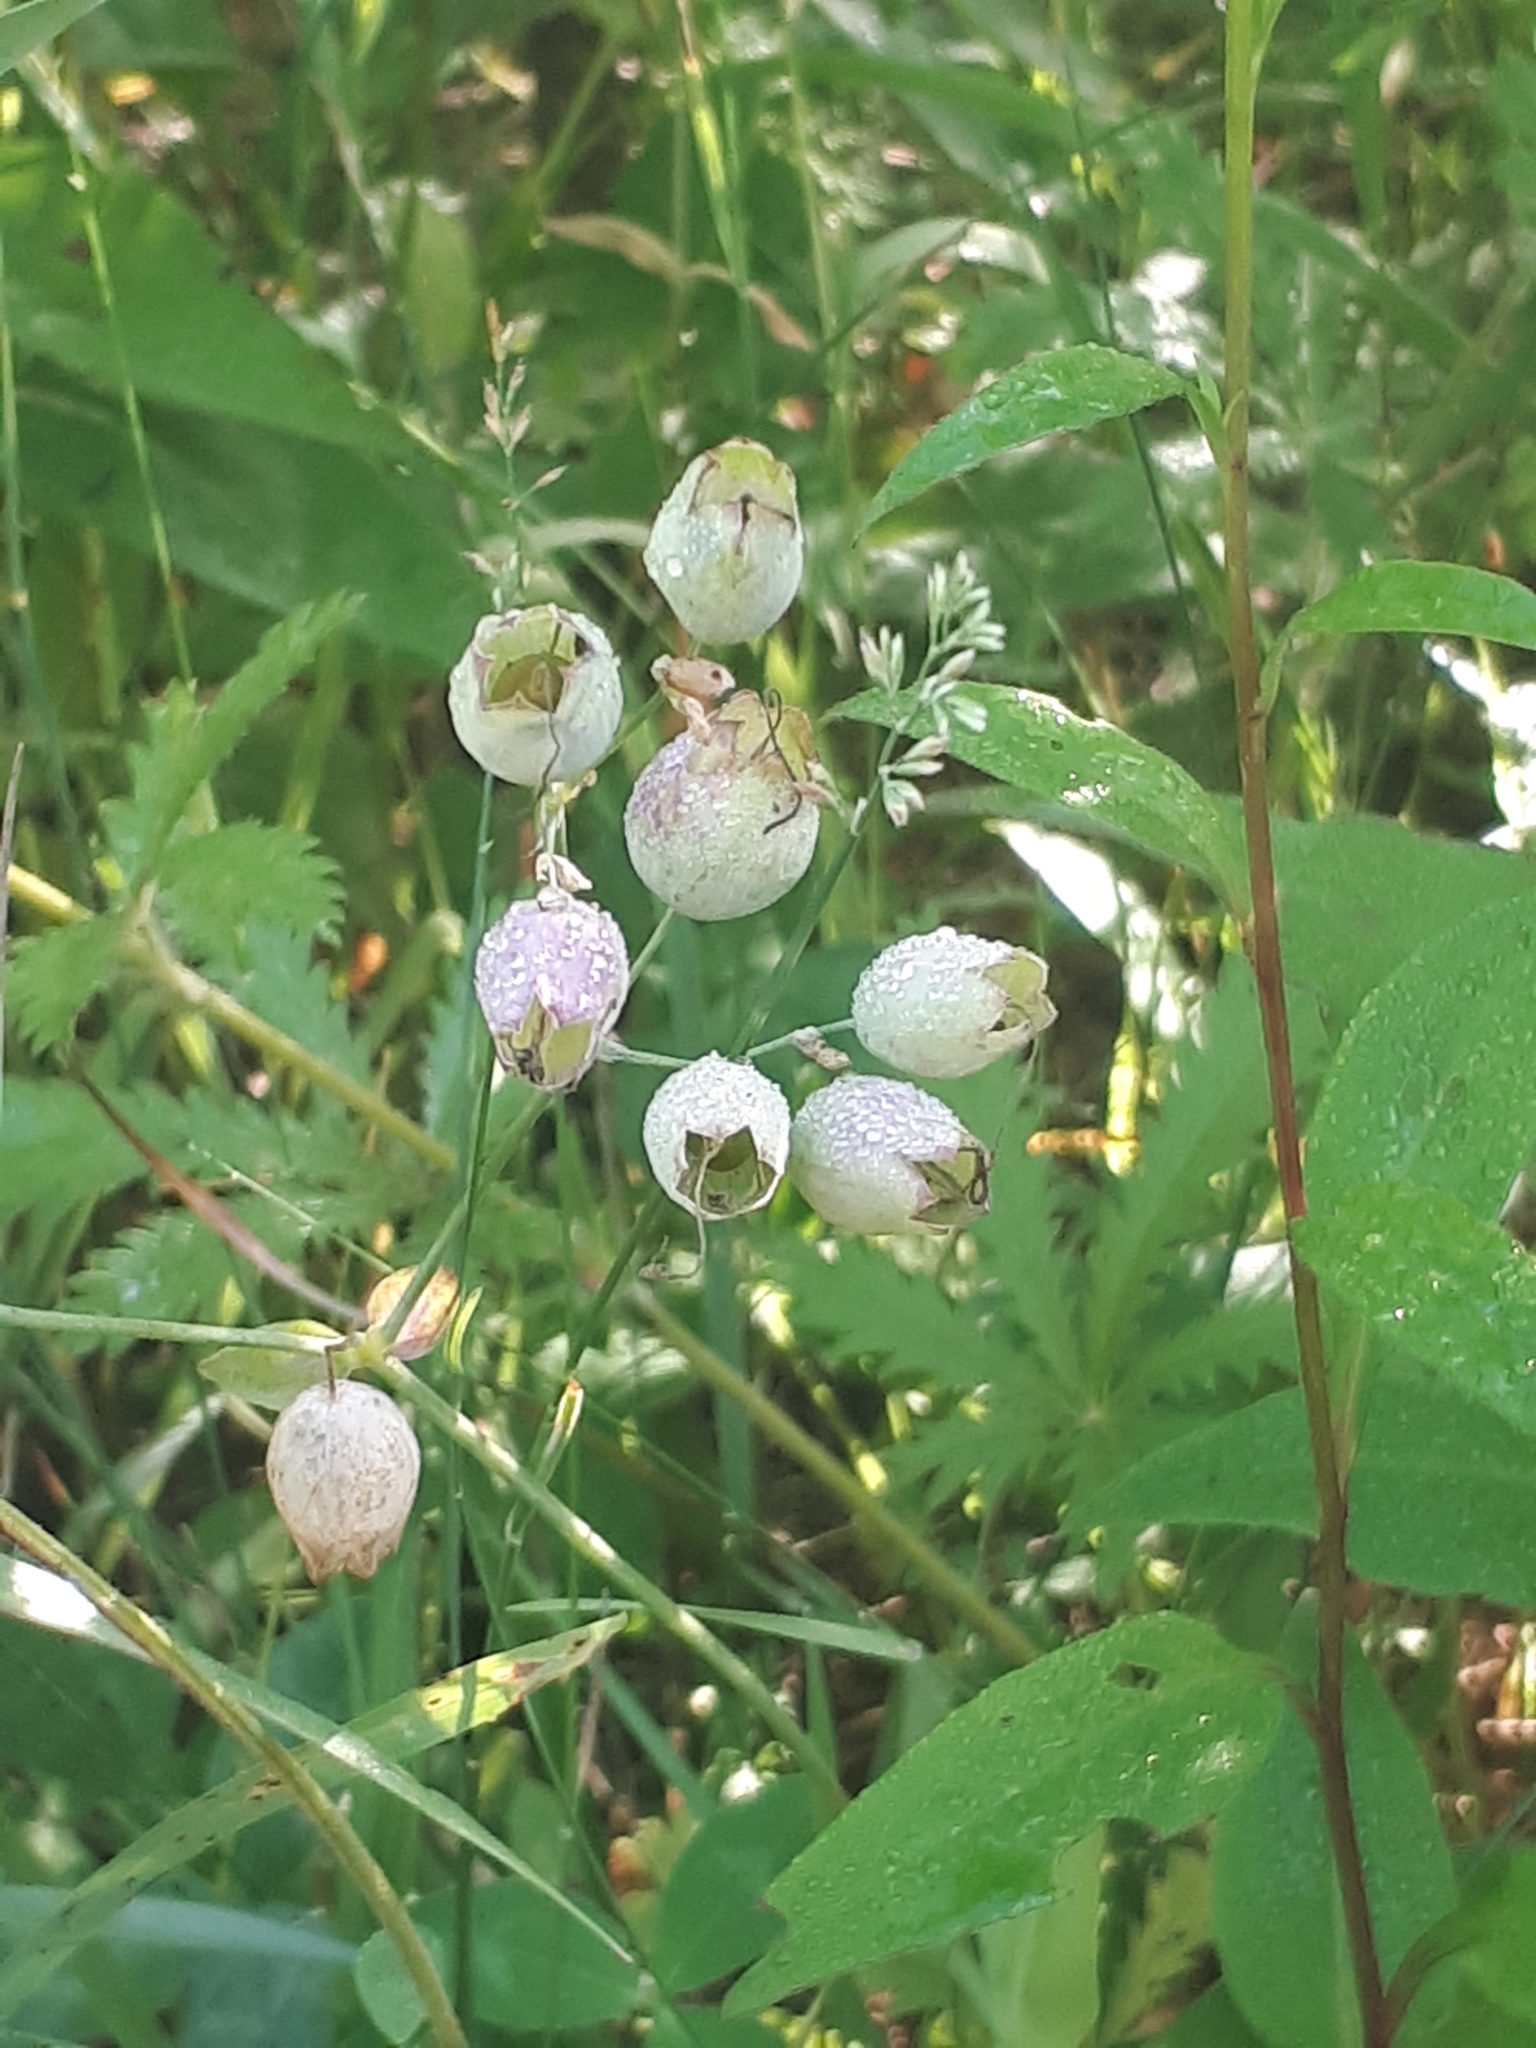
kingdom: Plantae
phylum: Tracheophyta
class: Magnoliopsida
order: Caryophyllales
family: Caryophyllaceae
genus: Silene
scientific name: Silene vulgaris
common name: Bladder campion
